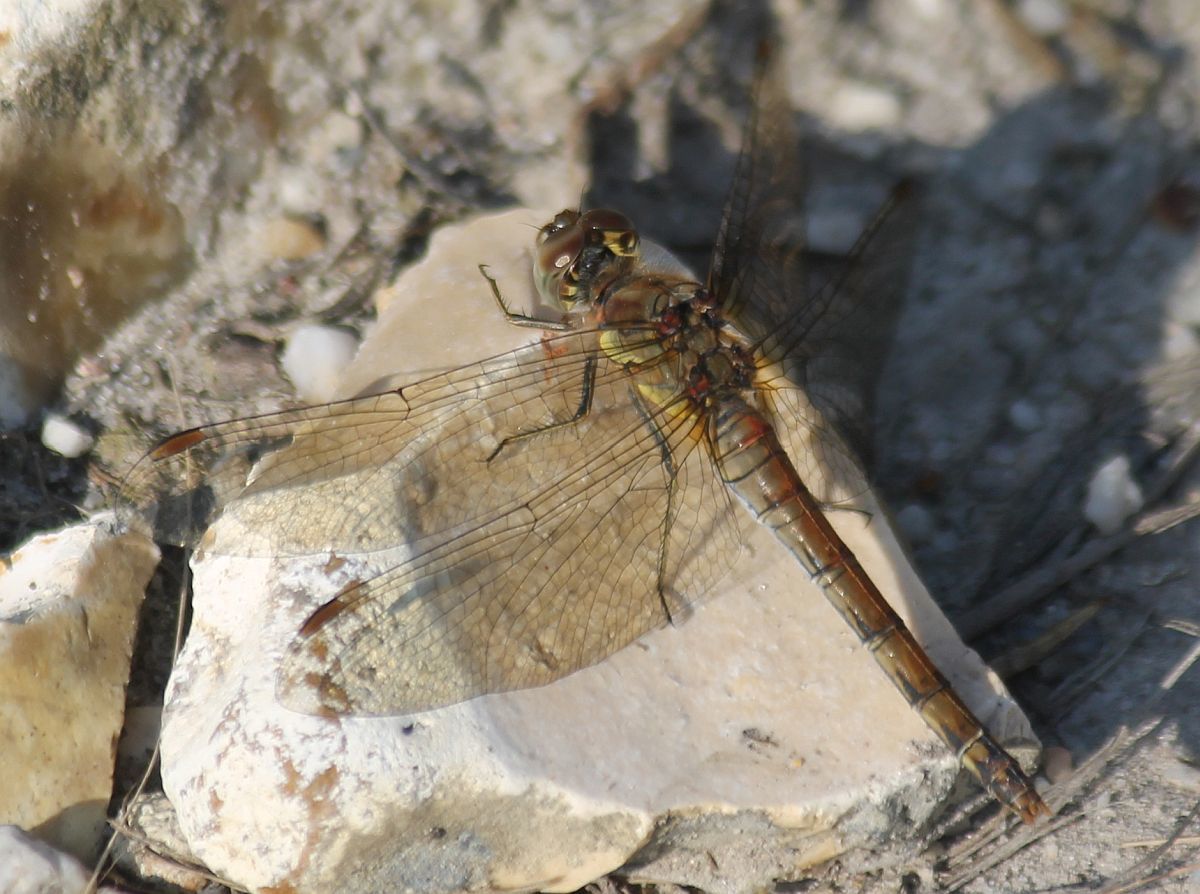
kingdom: Animalia
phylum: Arthropoda
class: Insecta
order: Odonata
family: Libellulidae
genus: Sympetrum
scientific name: Sympetrum striolatum
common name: Common darter
